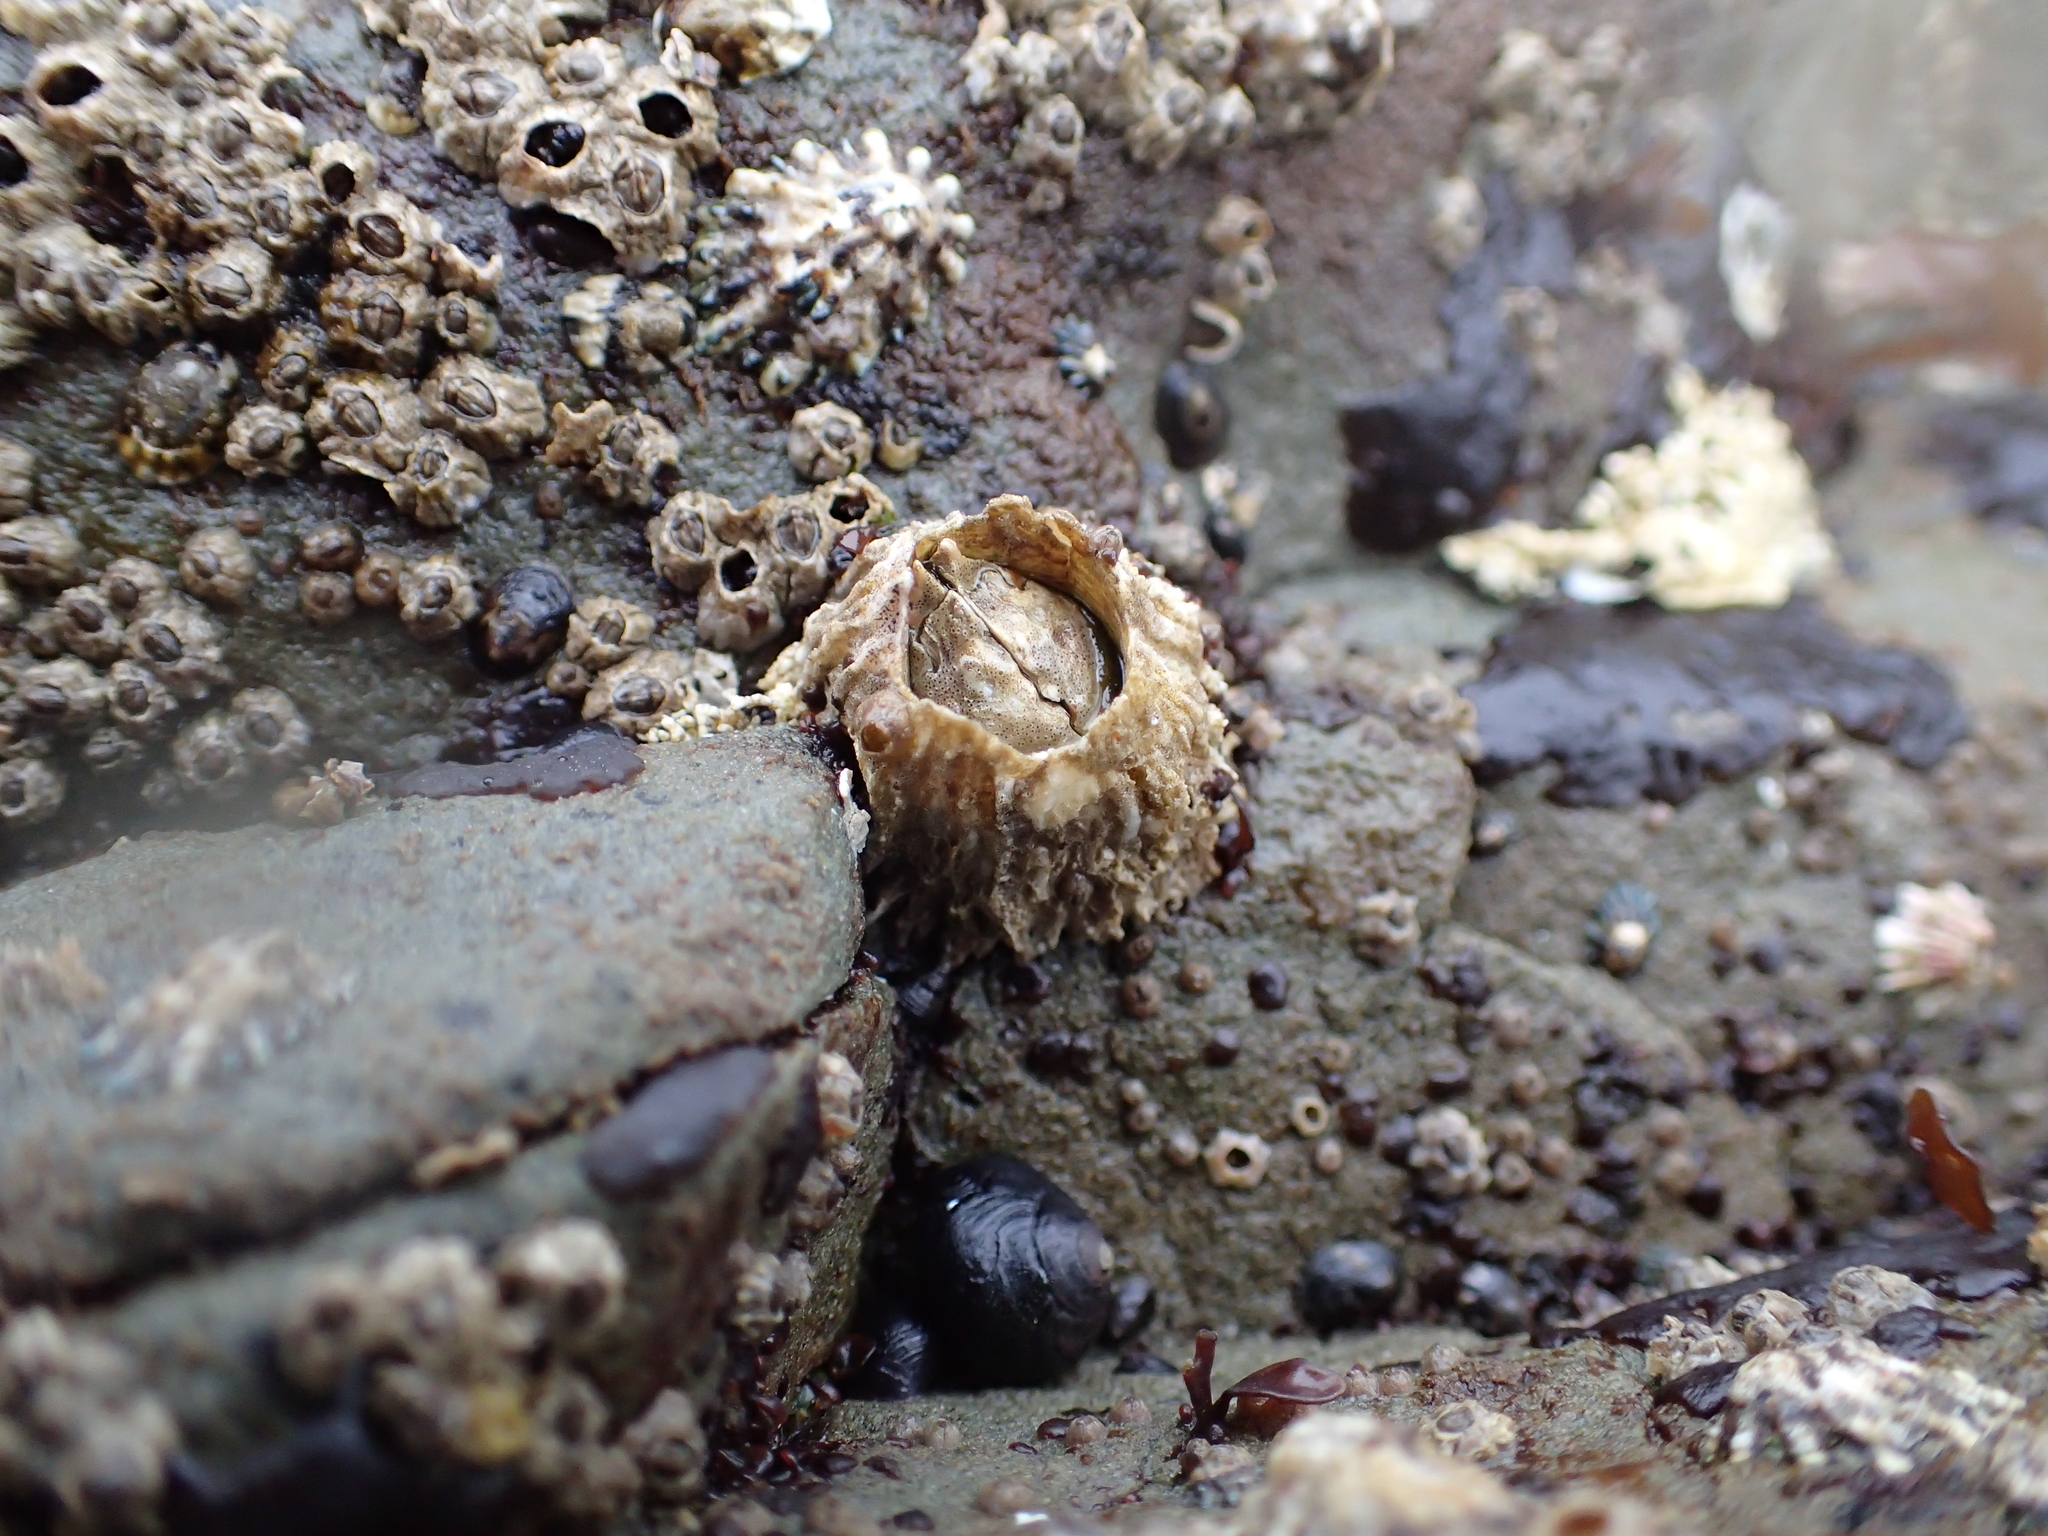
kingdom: Animalia
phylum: Arthropoda
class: Maxillopoda
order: Sessilia
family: Archaeobalanidae
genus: Semibalanus
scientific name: Semibalanus cariosus
